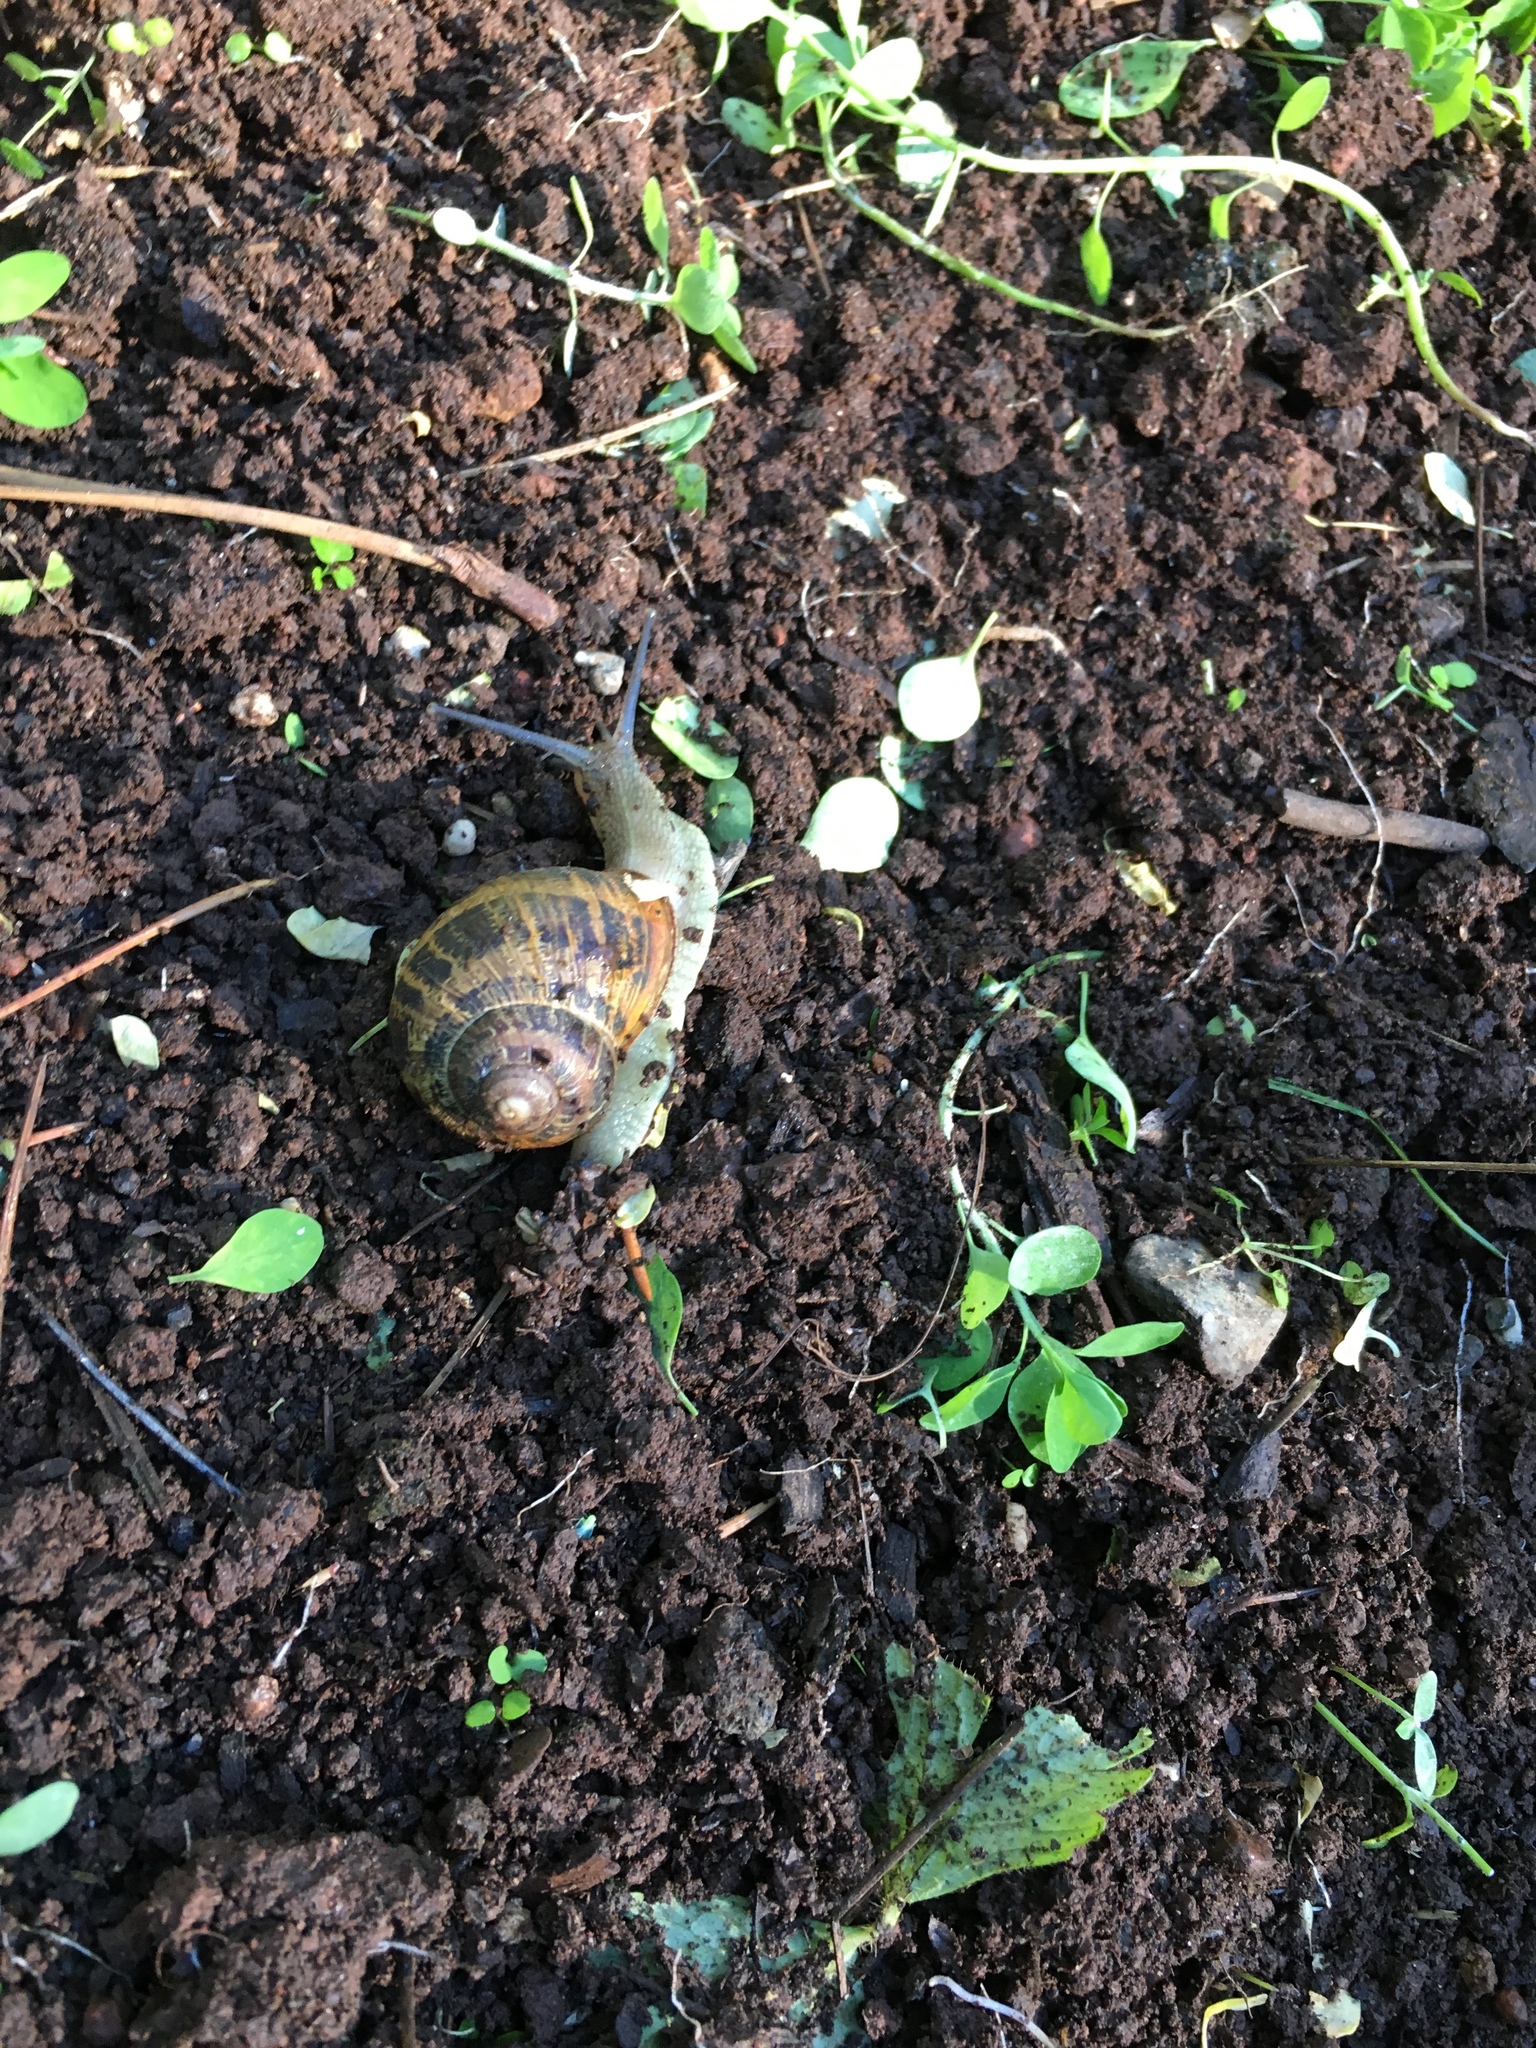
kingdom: Animalia
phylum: Mollusca
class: Gastropoda
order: Stylommatophora
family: Helicidae
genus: Cornu
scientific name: Cornu aspersum
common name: Brown garden snail
